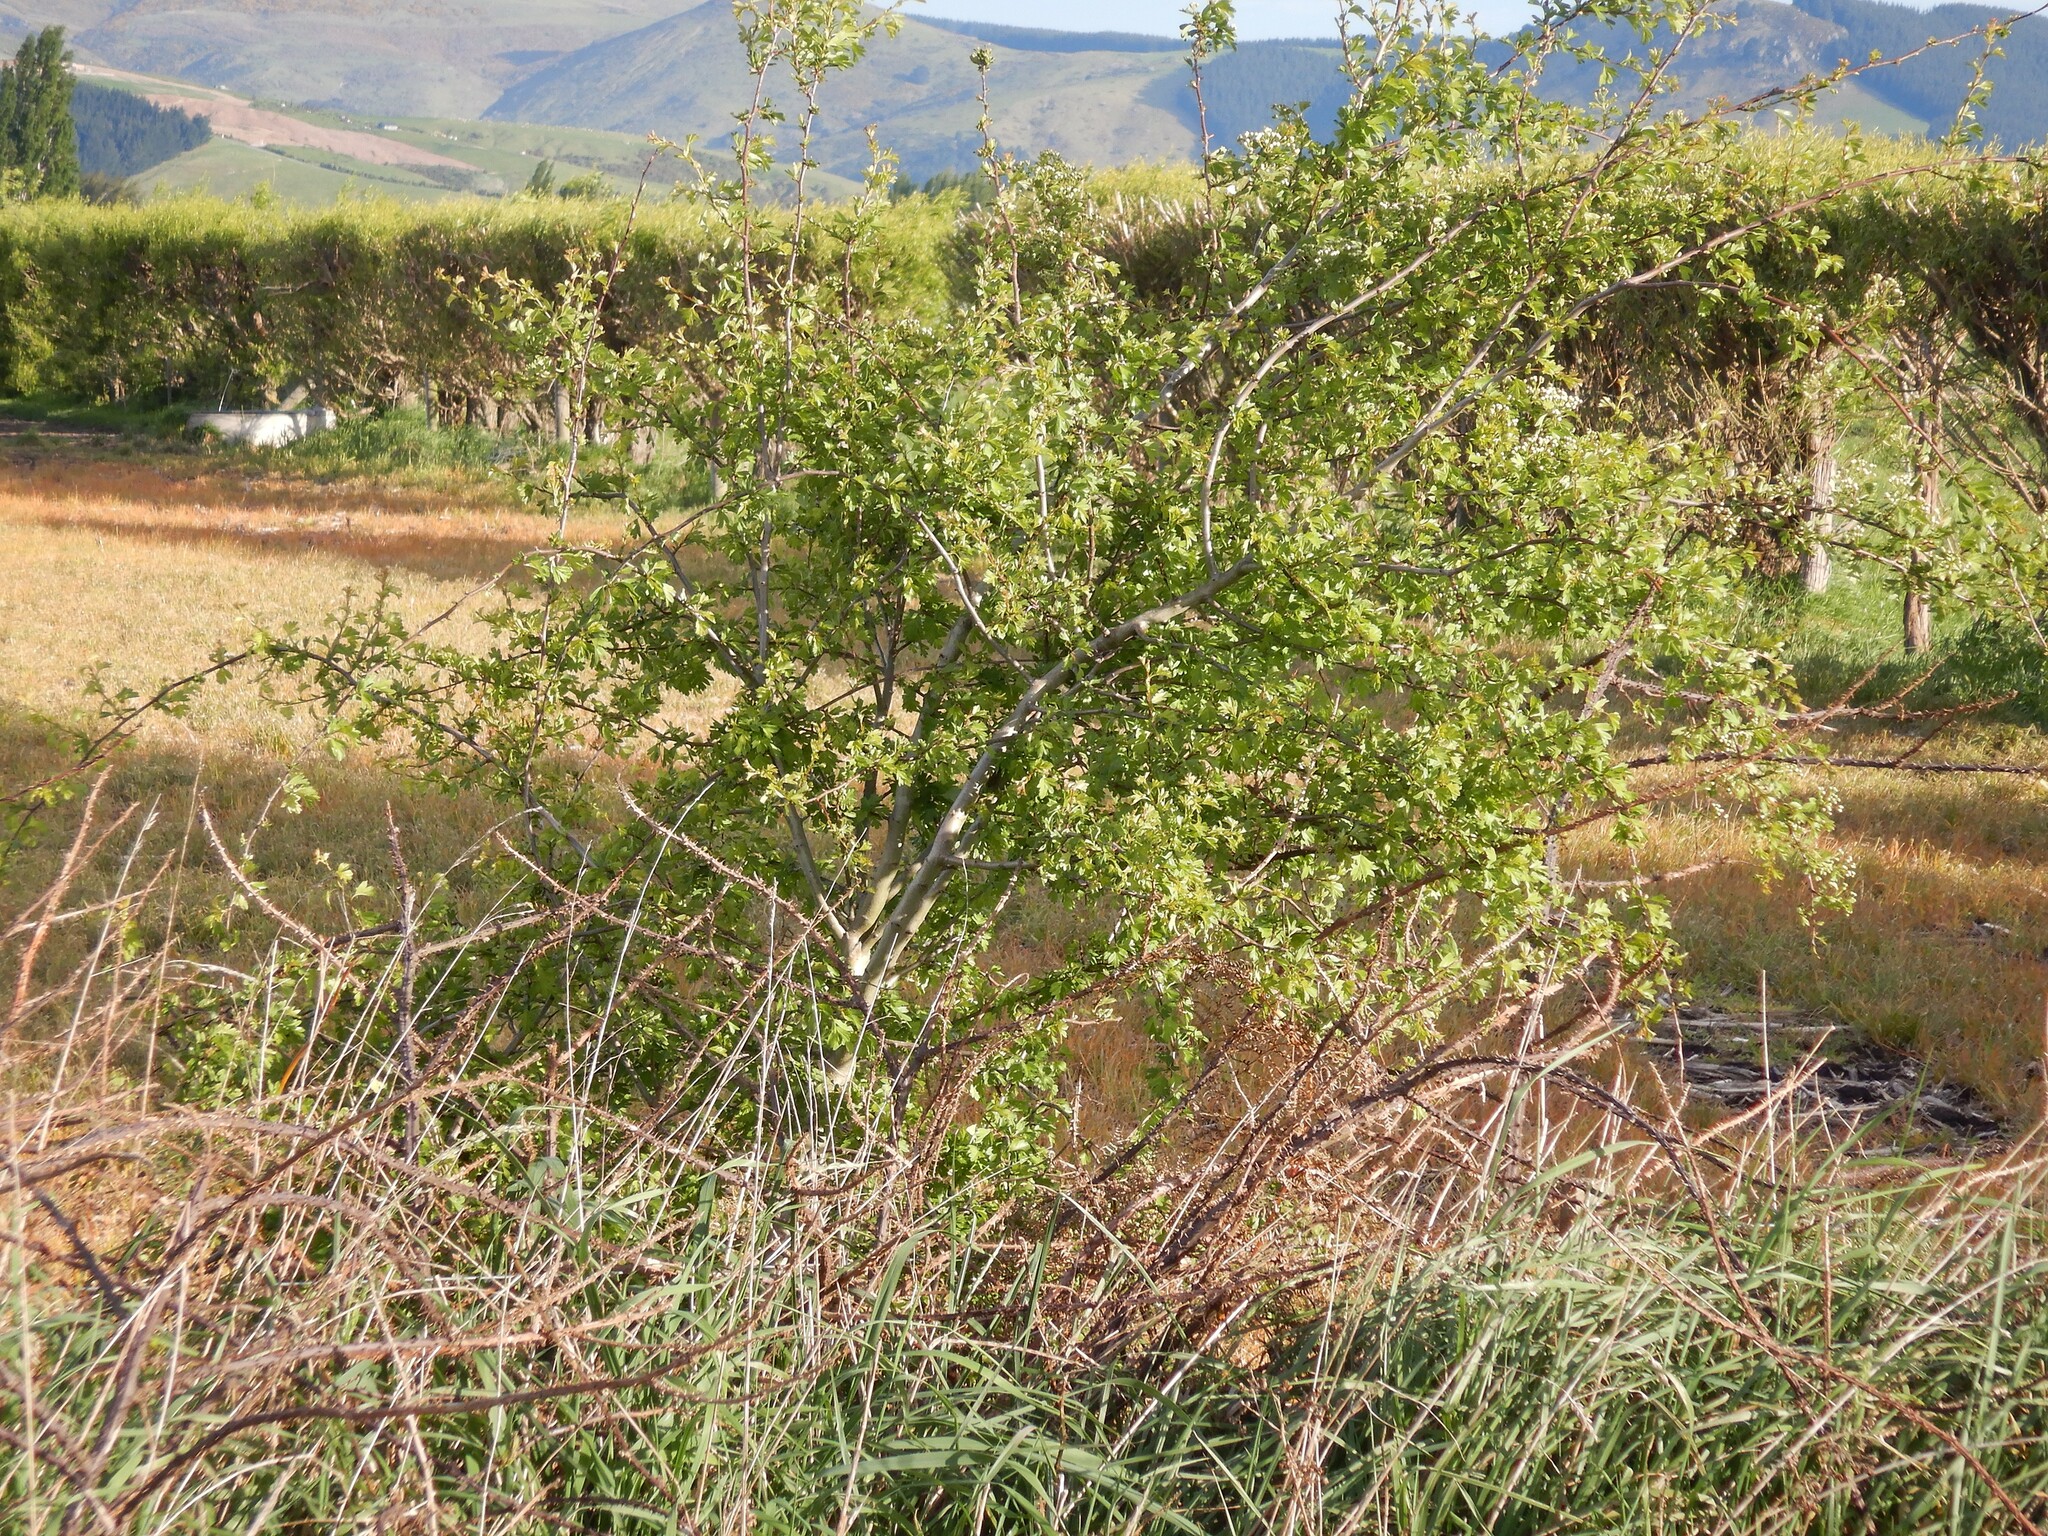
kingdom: Plantae
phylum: Tracheophyta
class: Magnoliopsida
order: Rosales
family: Rosaceae
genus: Crataegus
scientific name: Crataegus monogyna
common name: Hawthorn
